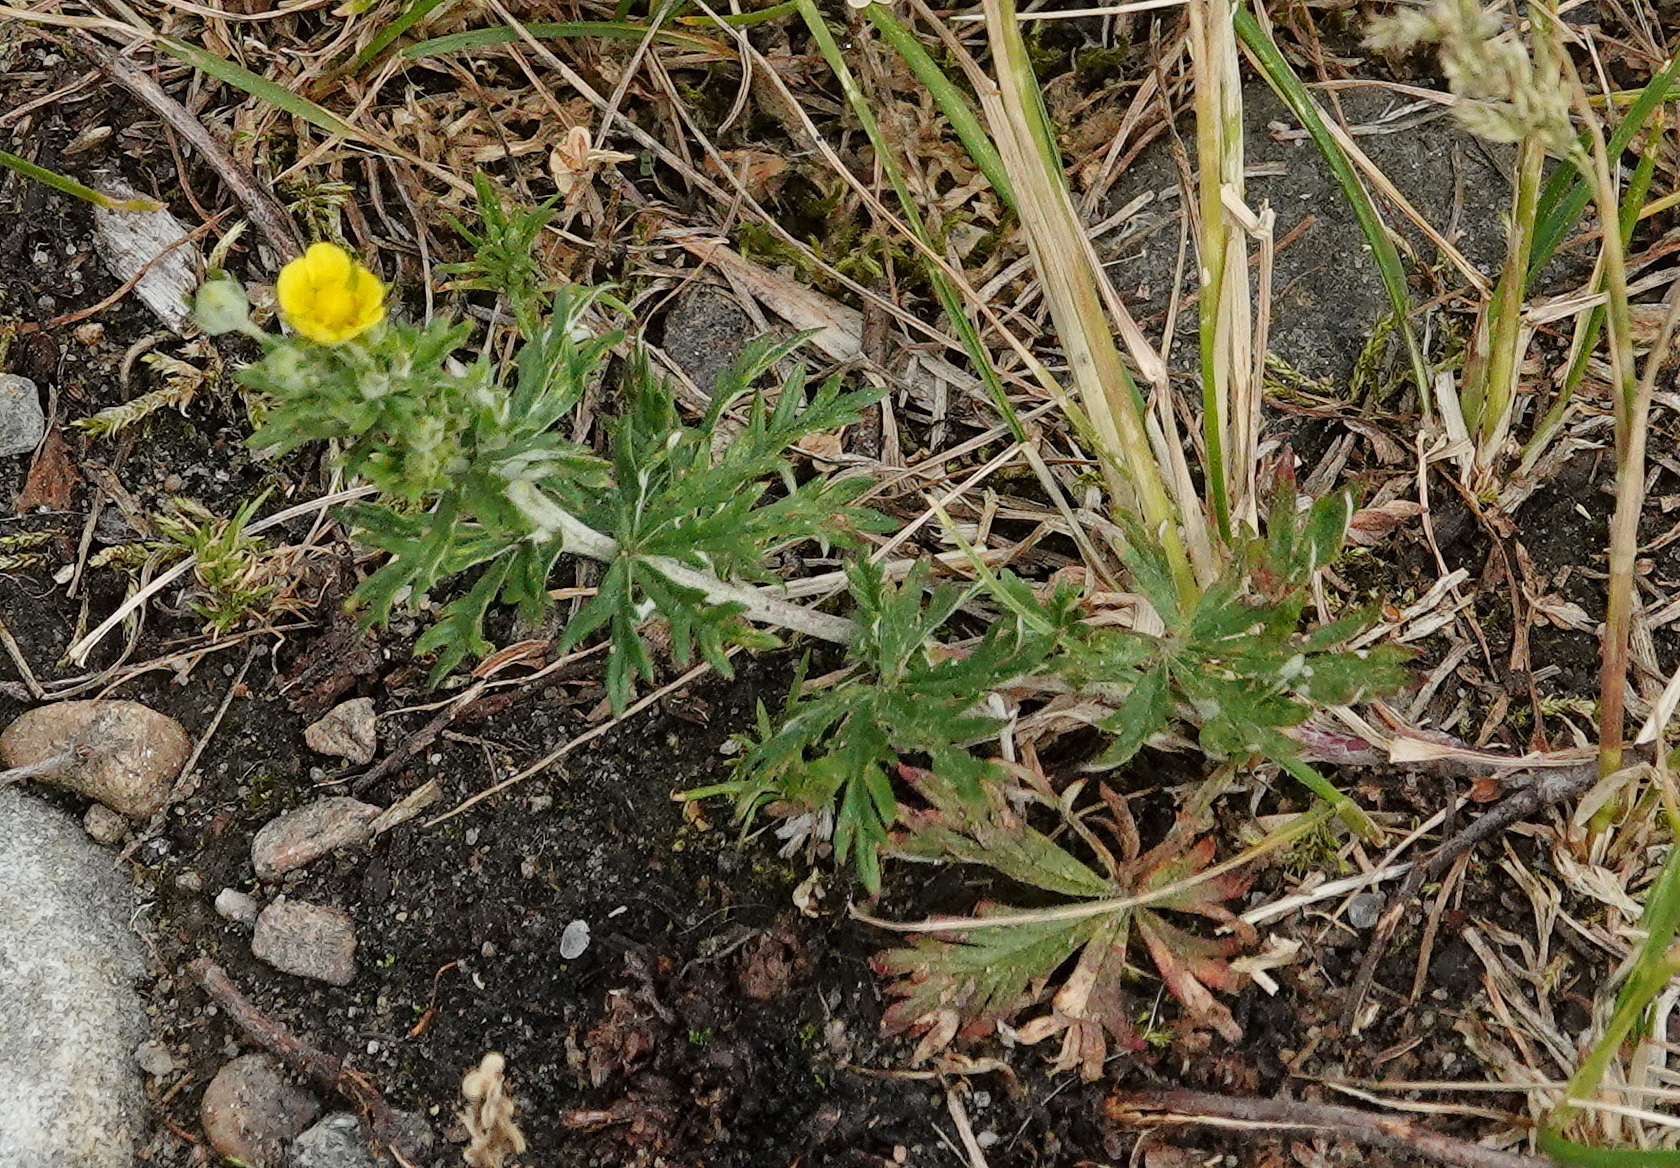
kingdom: Plantae
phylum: Tracheophyta
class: Magnoliopsida
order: Rosales
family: Rosaceae
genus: Potentilla
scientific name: Potentilla argentea
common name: Hoary cinquefoil
